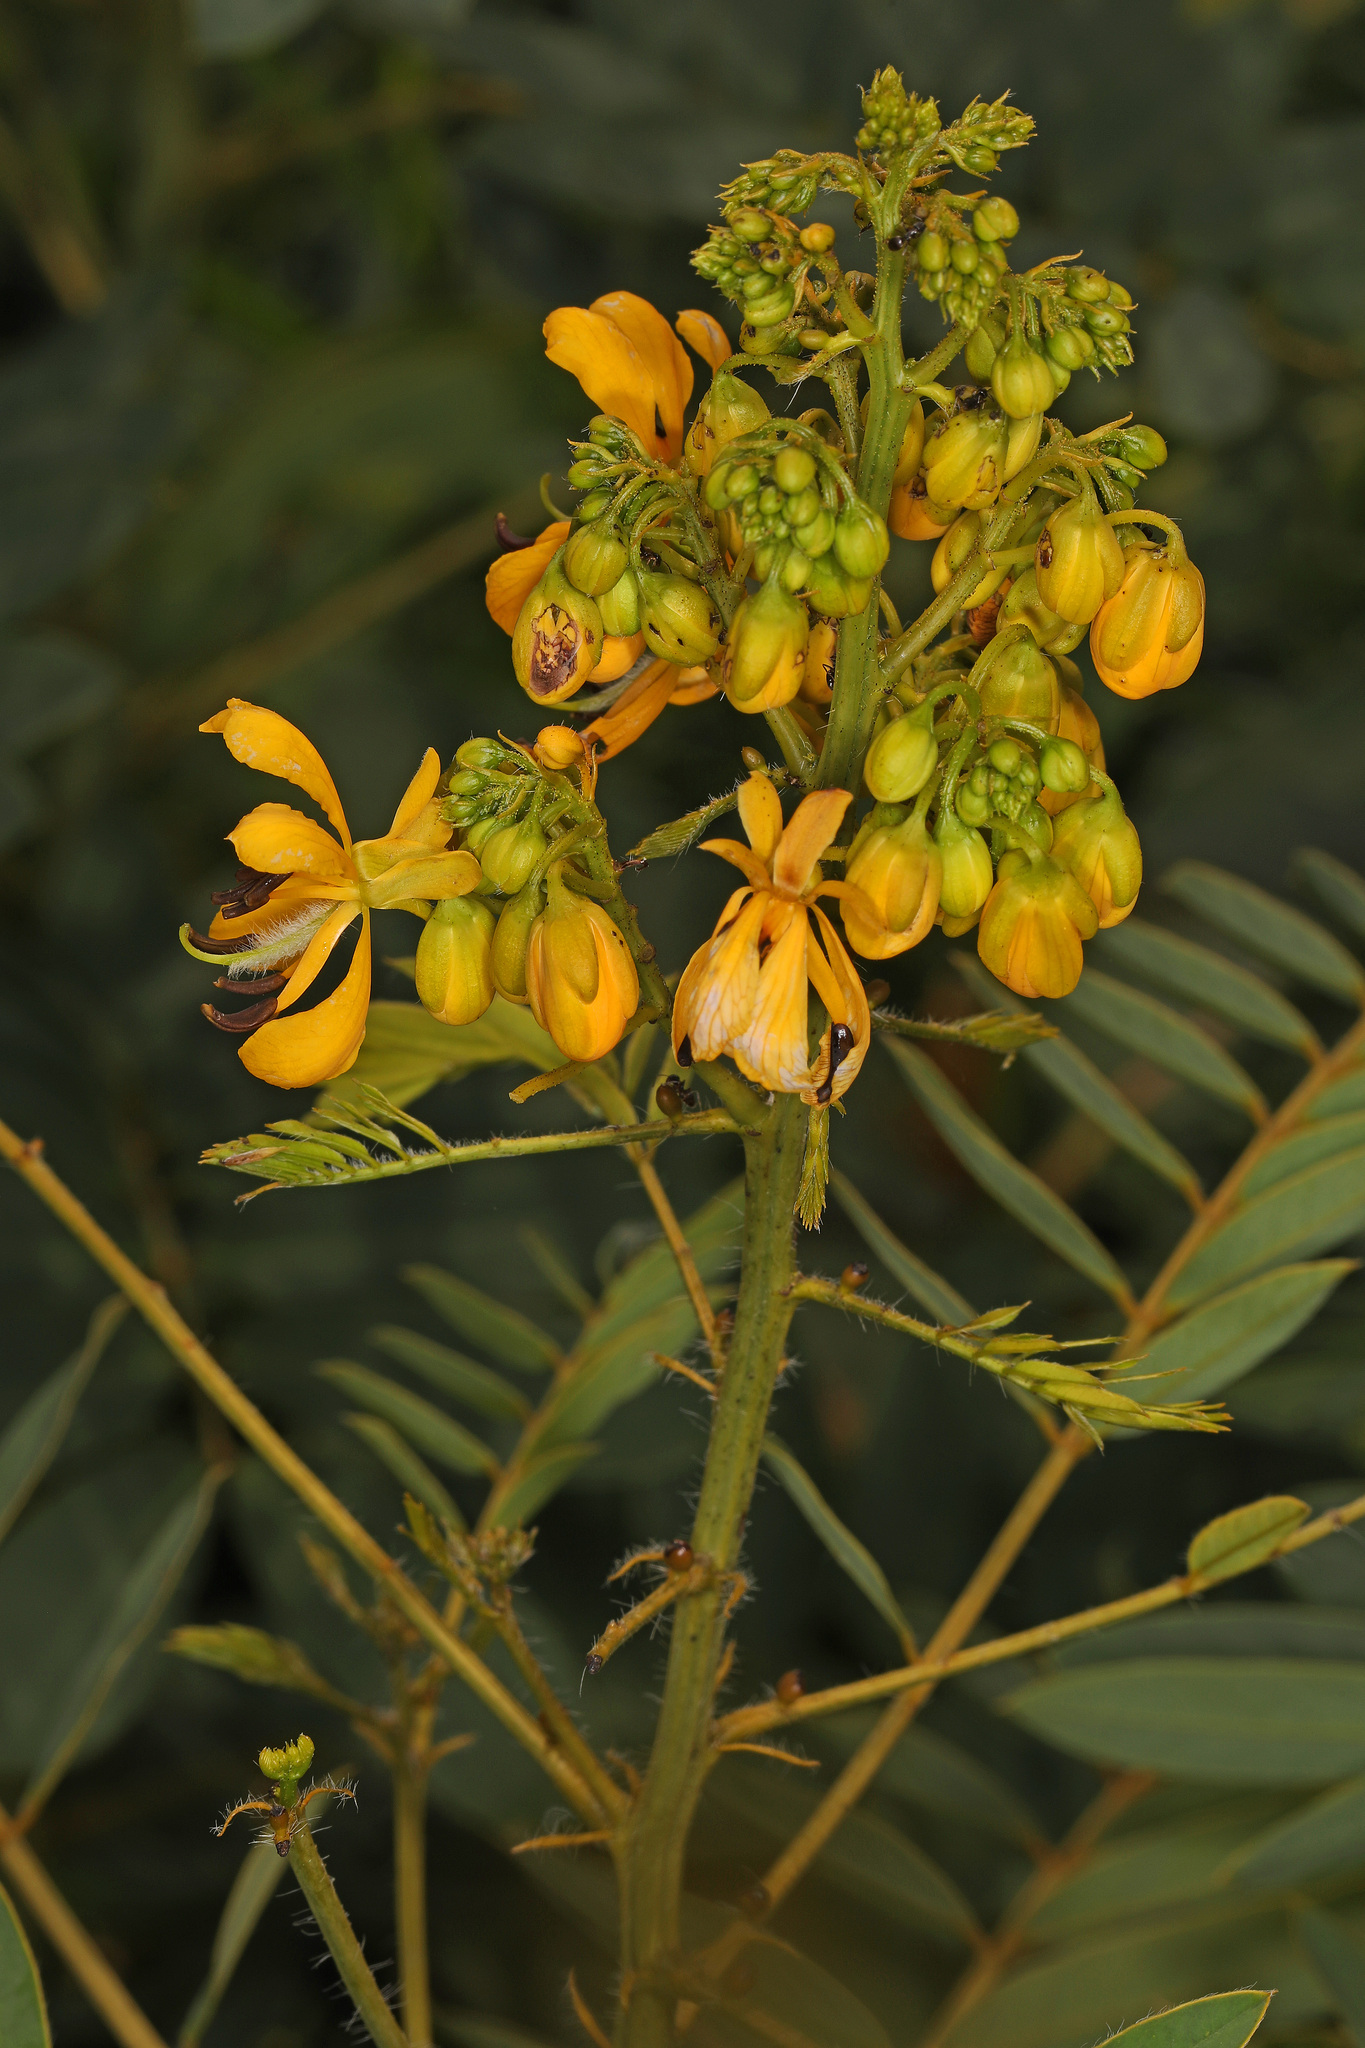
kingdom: Plantae
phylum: Tracheophyta
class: Magnoliopsida
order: Fabales
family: Fabaceae
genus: Senna
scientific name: Senna hebecarpa
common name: Wild senna
